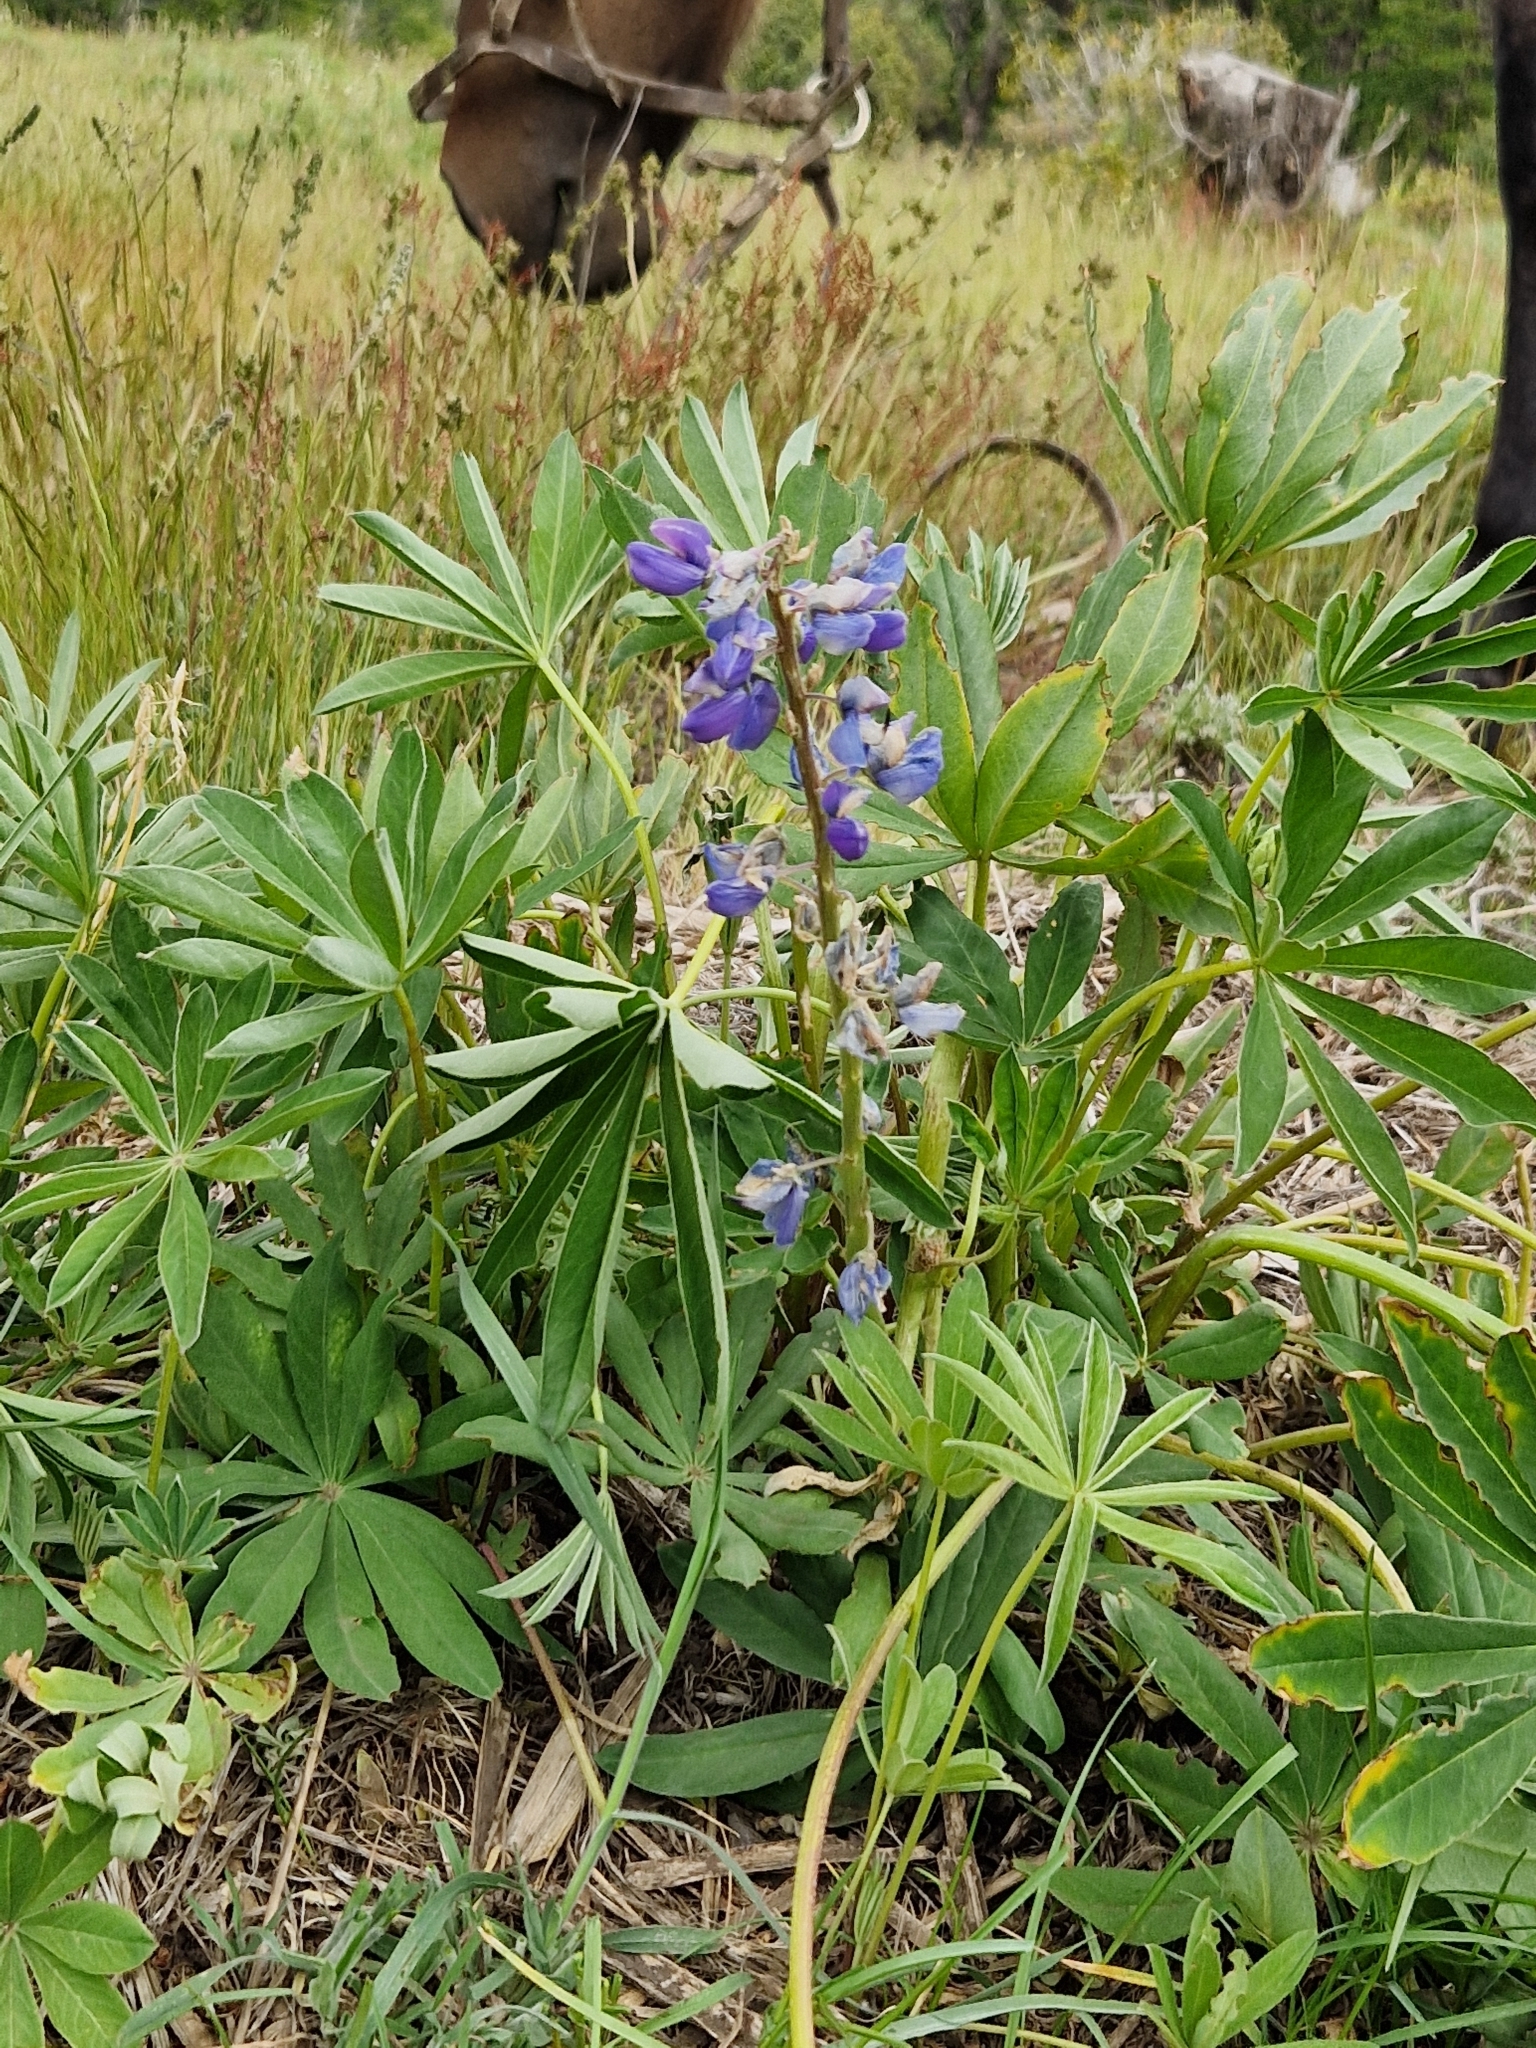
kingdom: Plantae
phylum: Tracheophyta
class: Magnoliopsida
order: Fabales
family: Fabaceae
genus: Lupinus
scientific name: Lupinus polyphyllus
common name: Garden lupin
